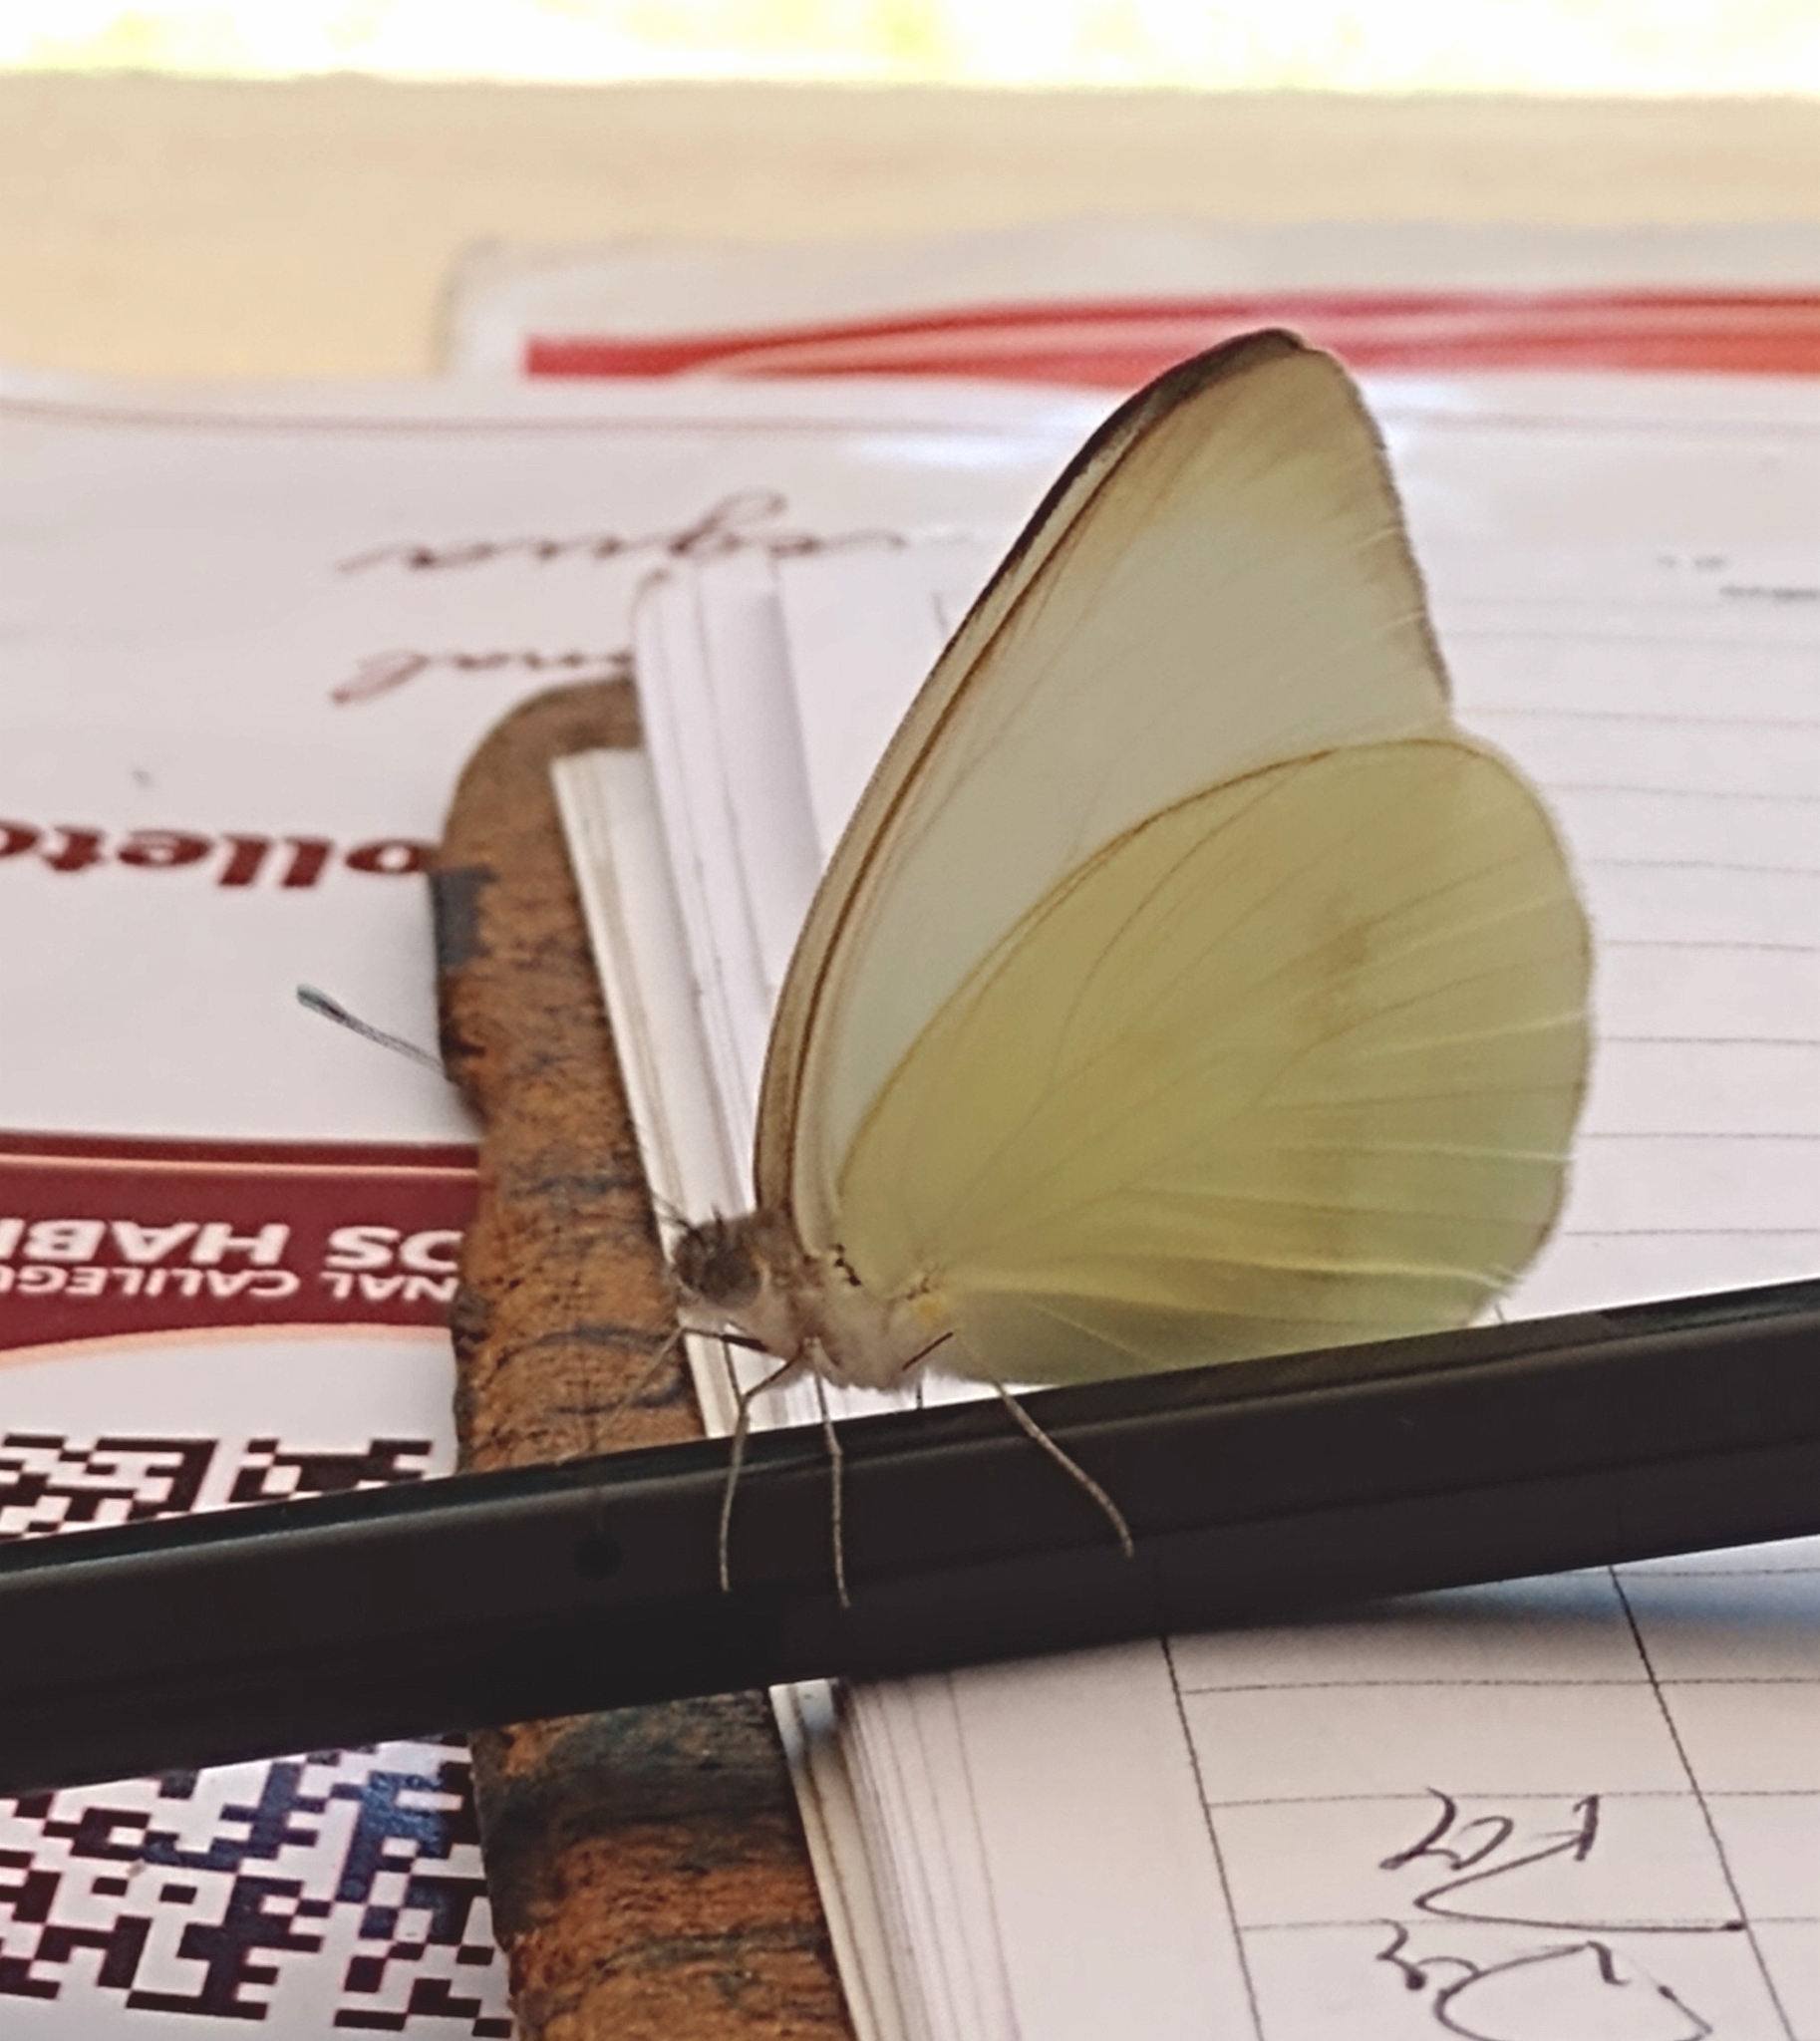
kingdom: Animalia
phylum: Arthropoda
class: Insecta
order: Lepidoptera
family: Pieridae
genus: Ascia
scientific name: Ascia monuste
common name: Great southern white
